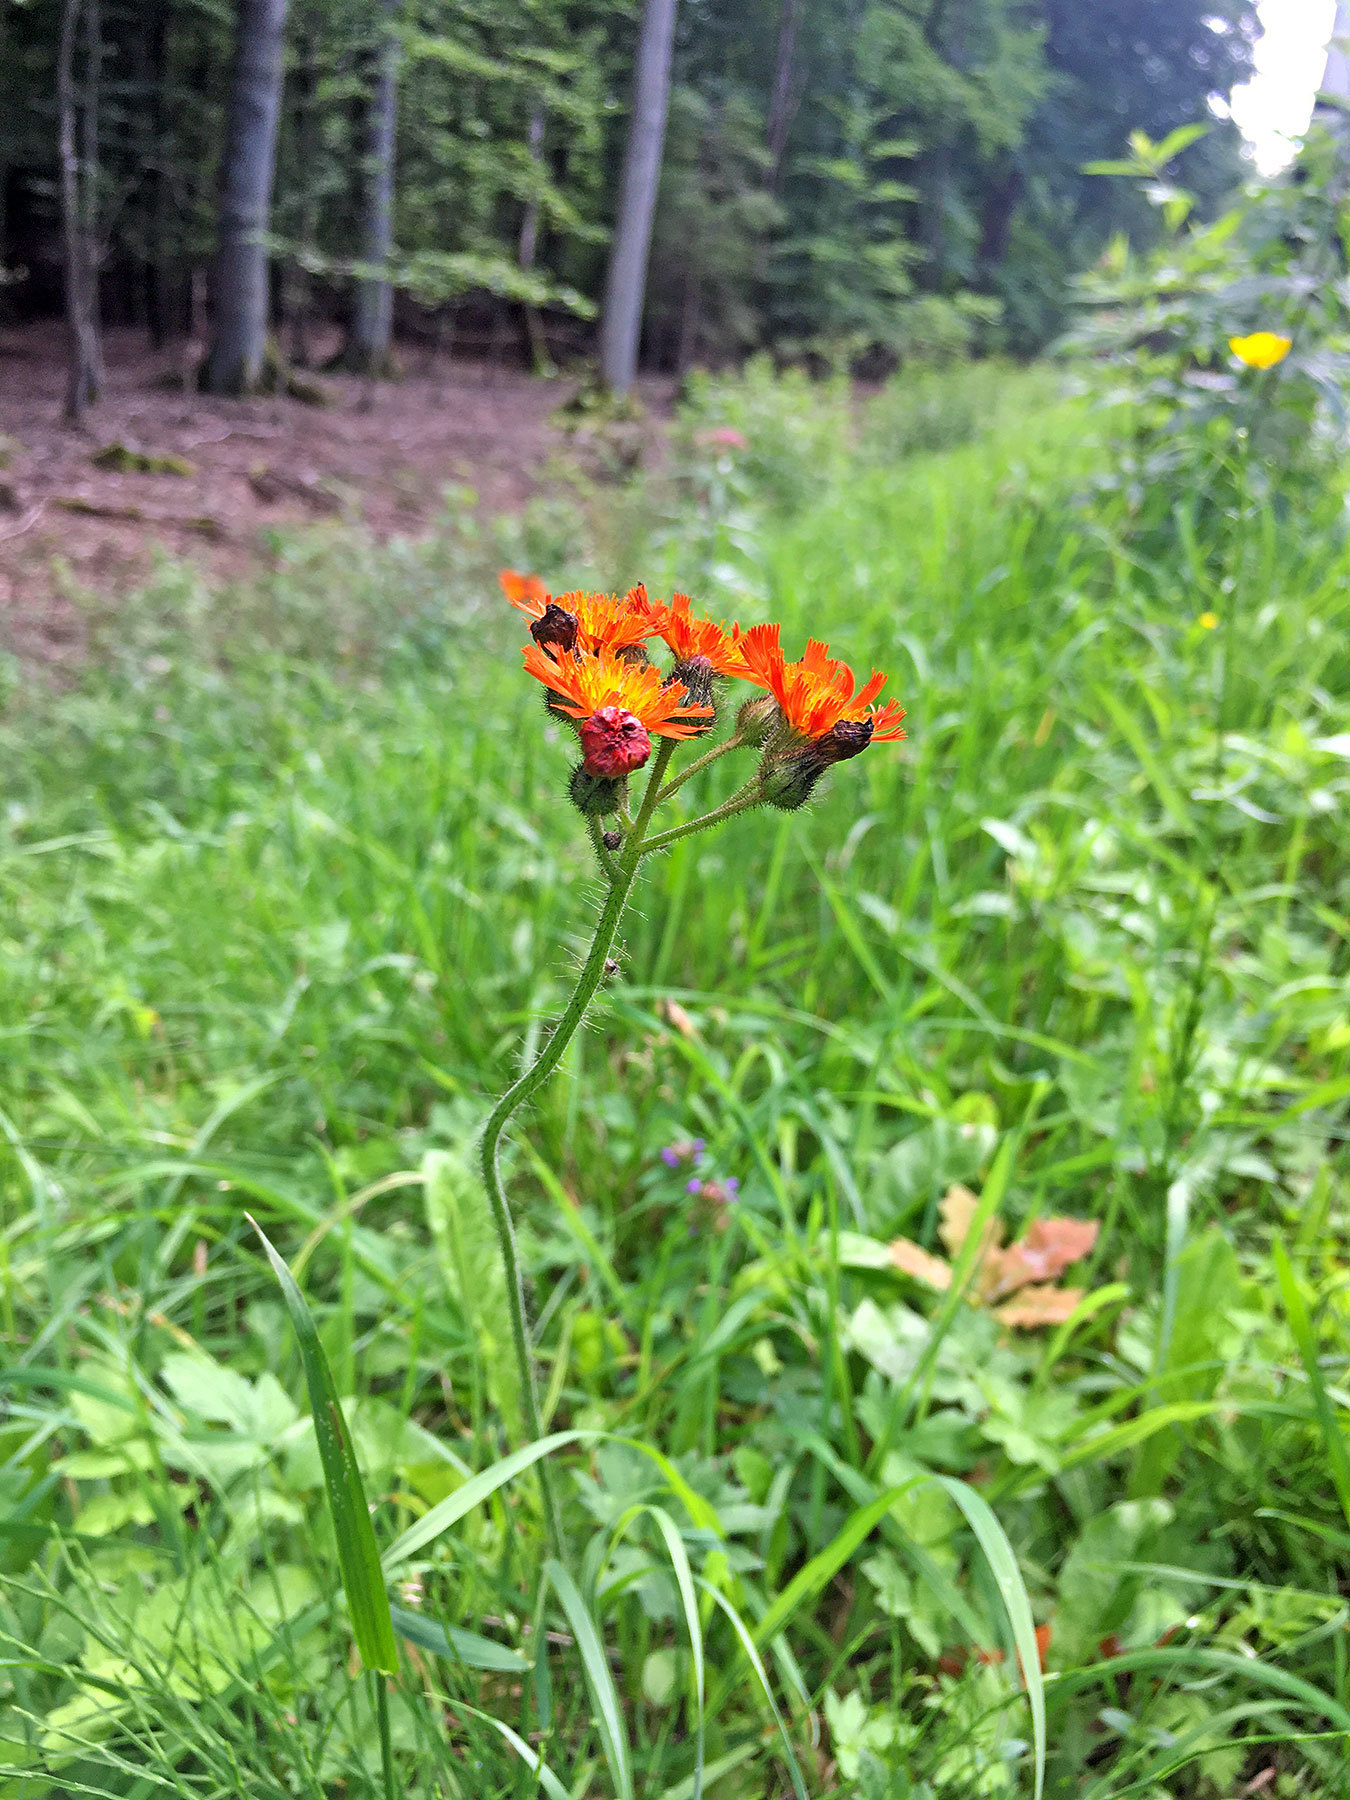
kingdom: Plantae
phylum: Tracheophyta
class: Magnoliopsida
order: Asterales
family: Asteraceae
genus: Pilosella
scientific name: Pilosella aurantiaca
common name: Fox-and-cubs
